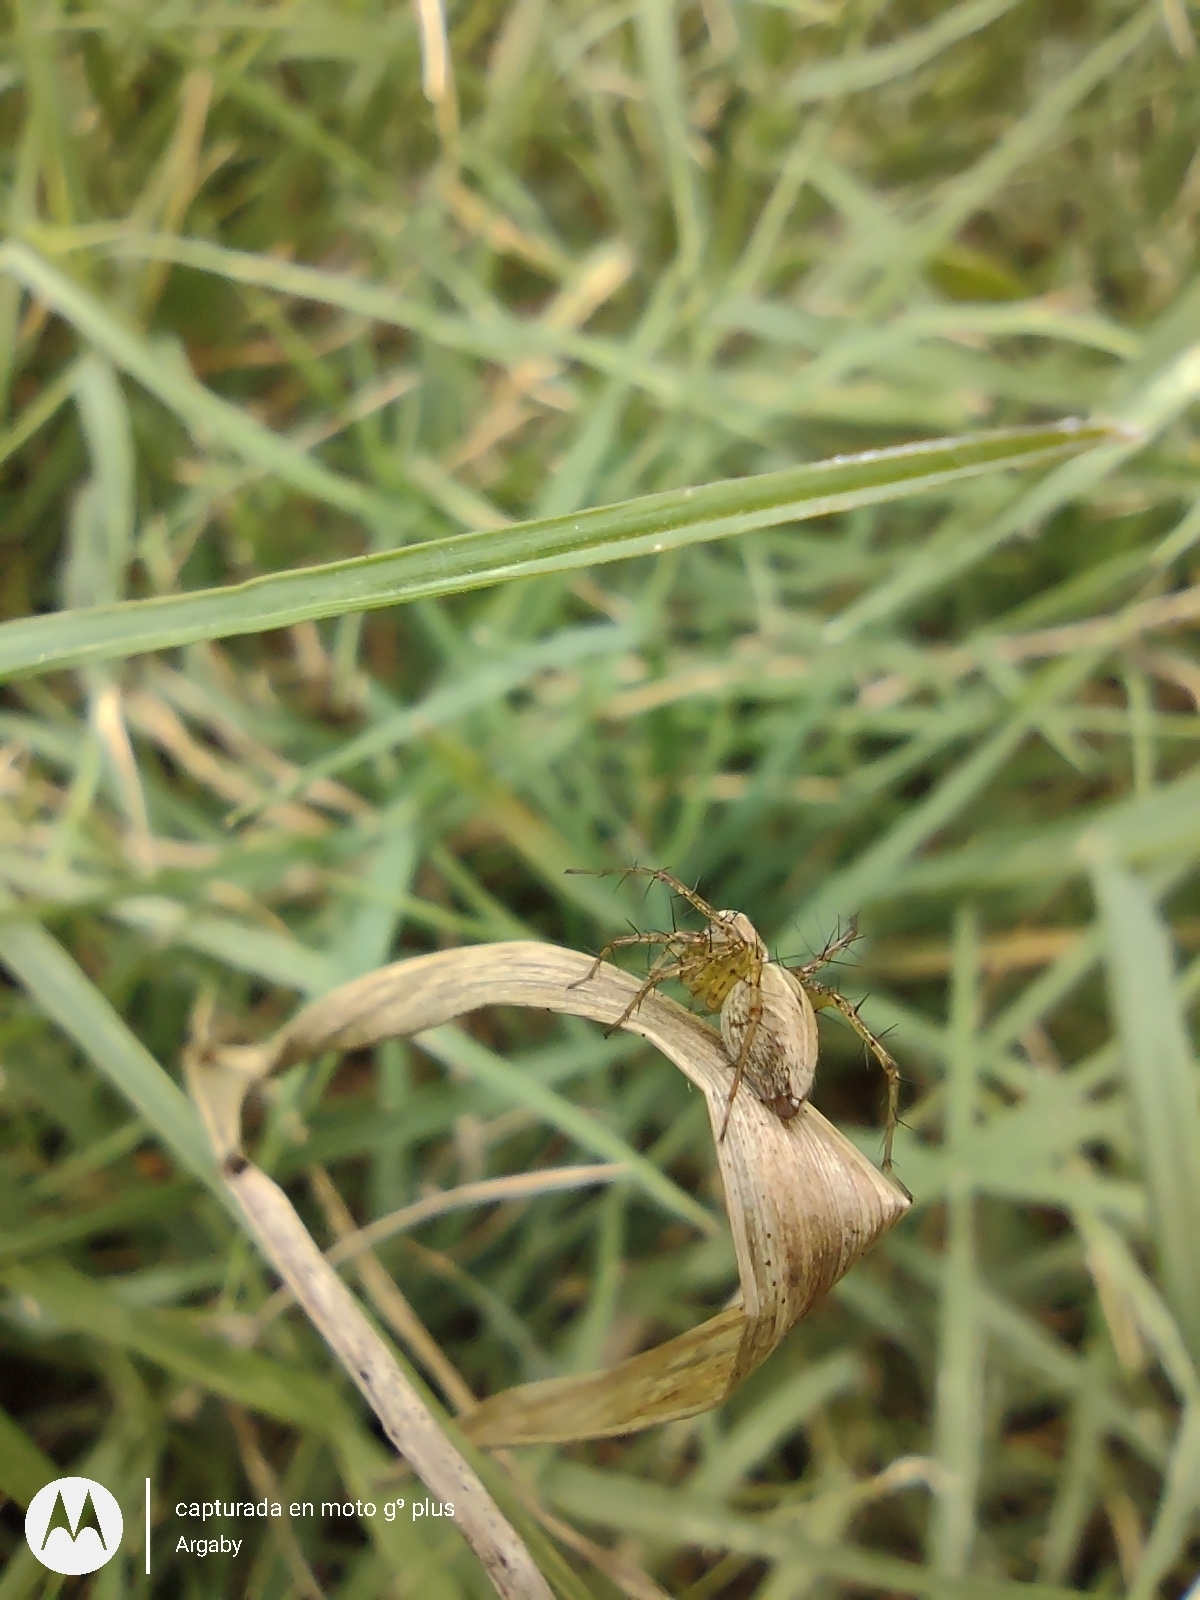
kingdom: Animalia
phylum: Arthropoda
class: Arachnida
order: Araneae
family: Oxyopidae
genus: Oxyopes
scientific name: Oxyopes salticus
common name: Lynx spiders
